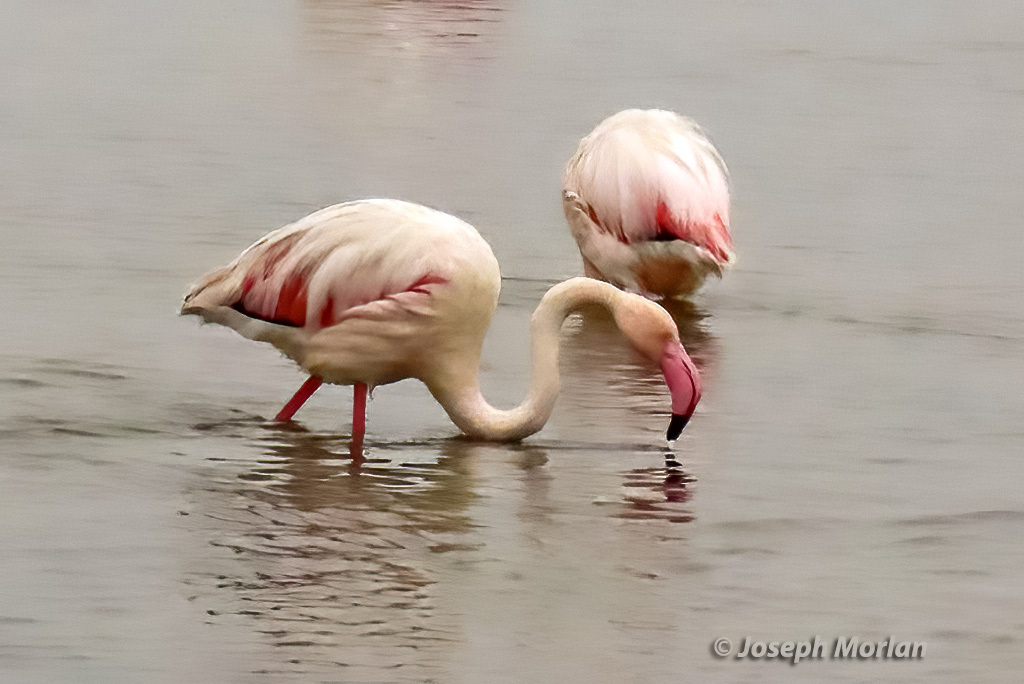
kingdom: Animalia
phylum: Chordata
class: Aves
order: Phoenicopteriformes
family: Phoenicopteridae
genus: Phoenicopterus
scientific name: Phoenicopterus roseus
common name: Greater flamingo
